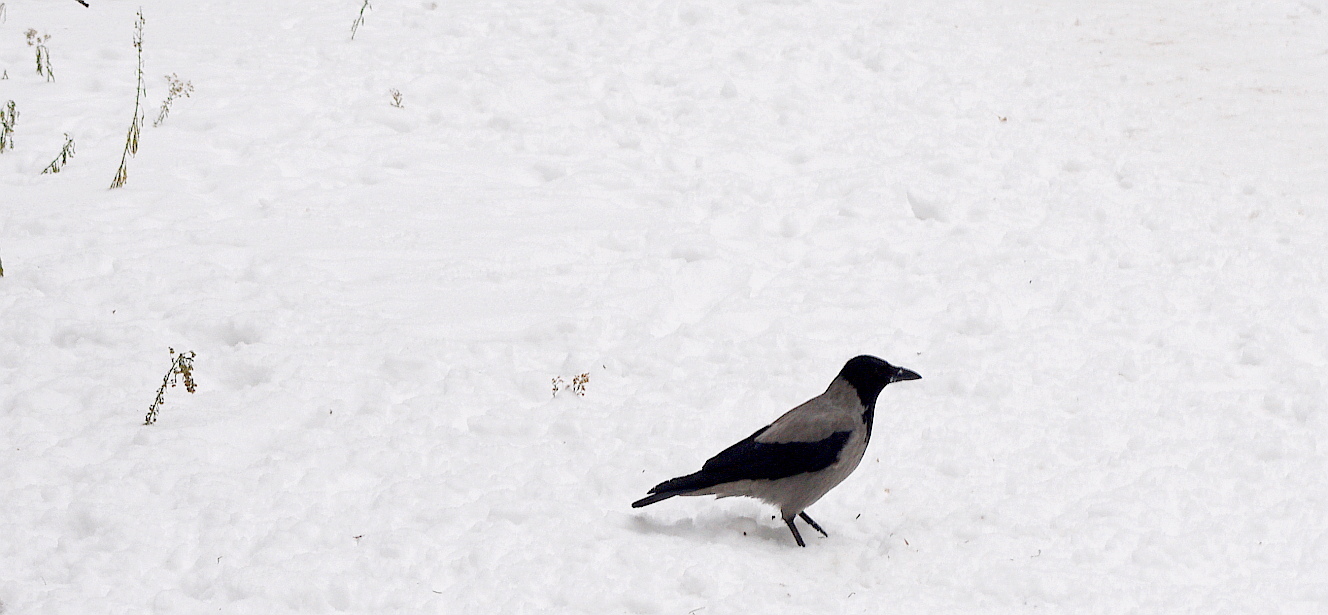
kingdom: Animalia
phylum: Chordata
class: Aves
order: Passeriformes
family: Corvidae
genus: Corvus
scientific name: Corvus cornix
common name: Hooded crow
